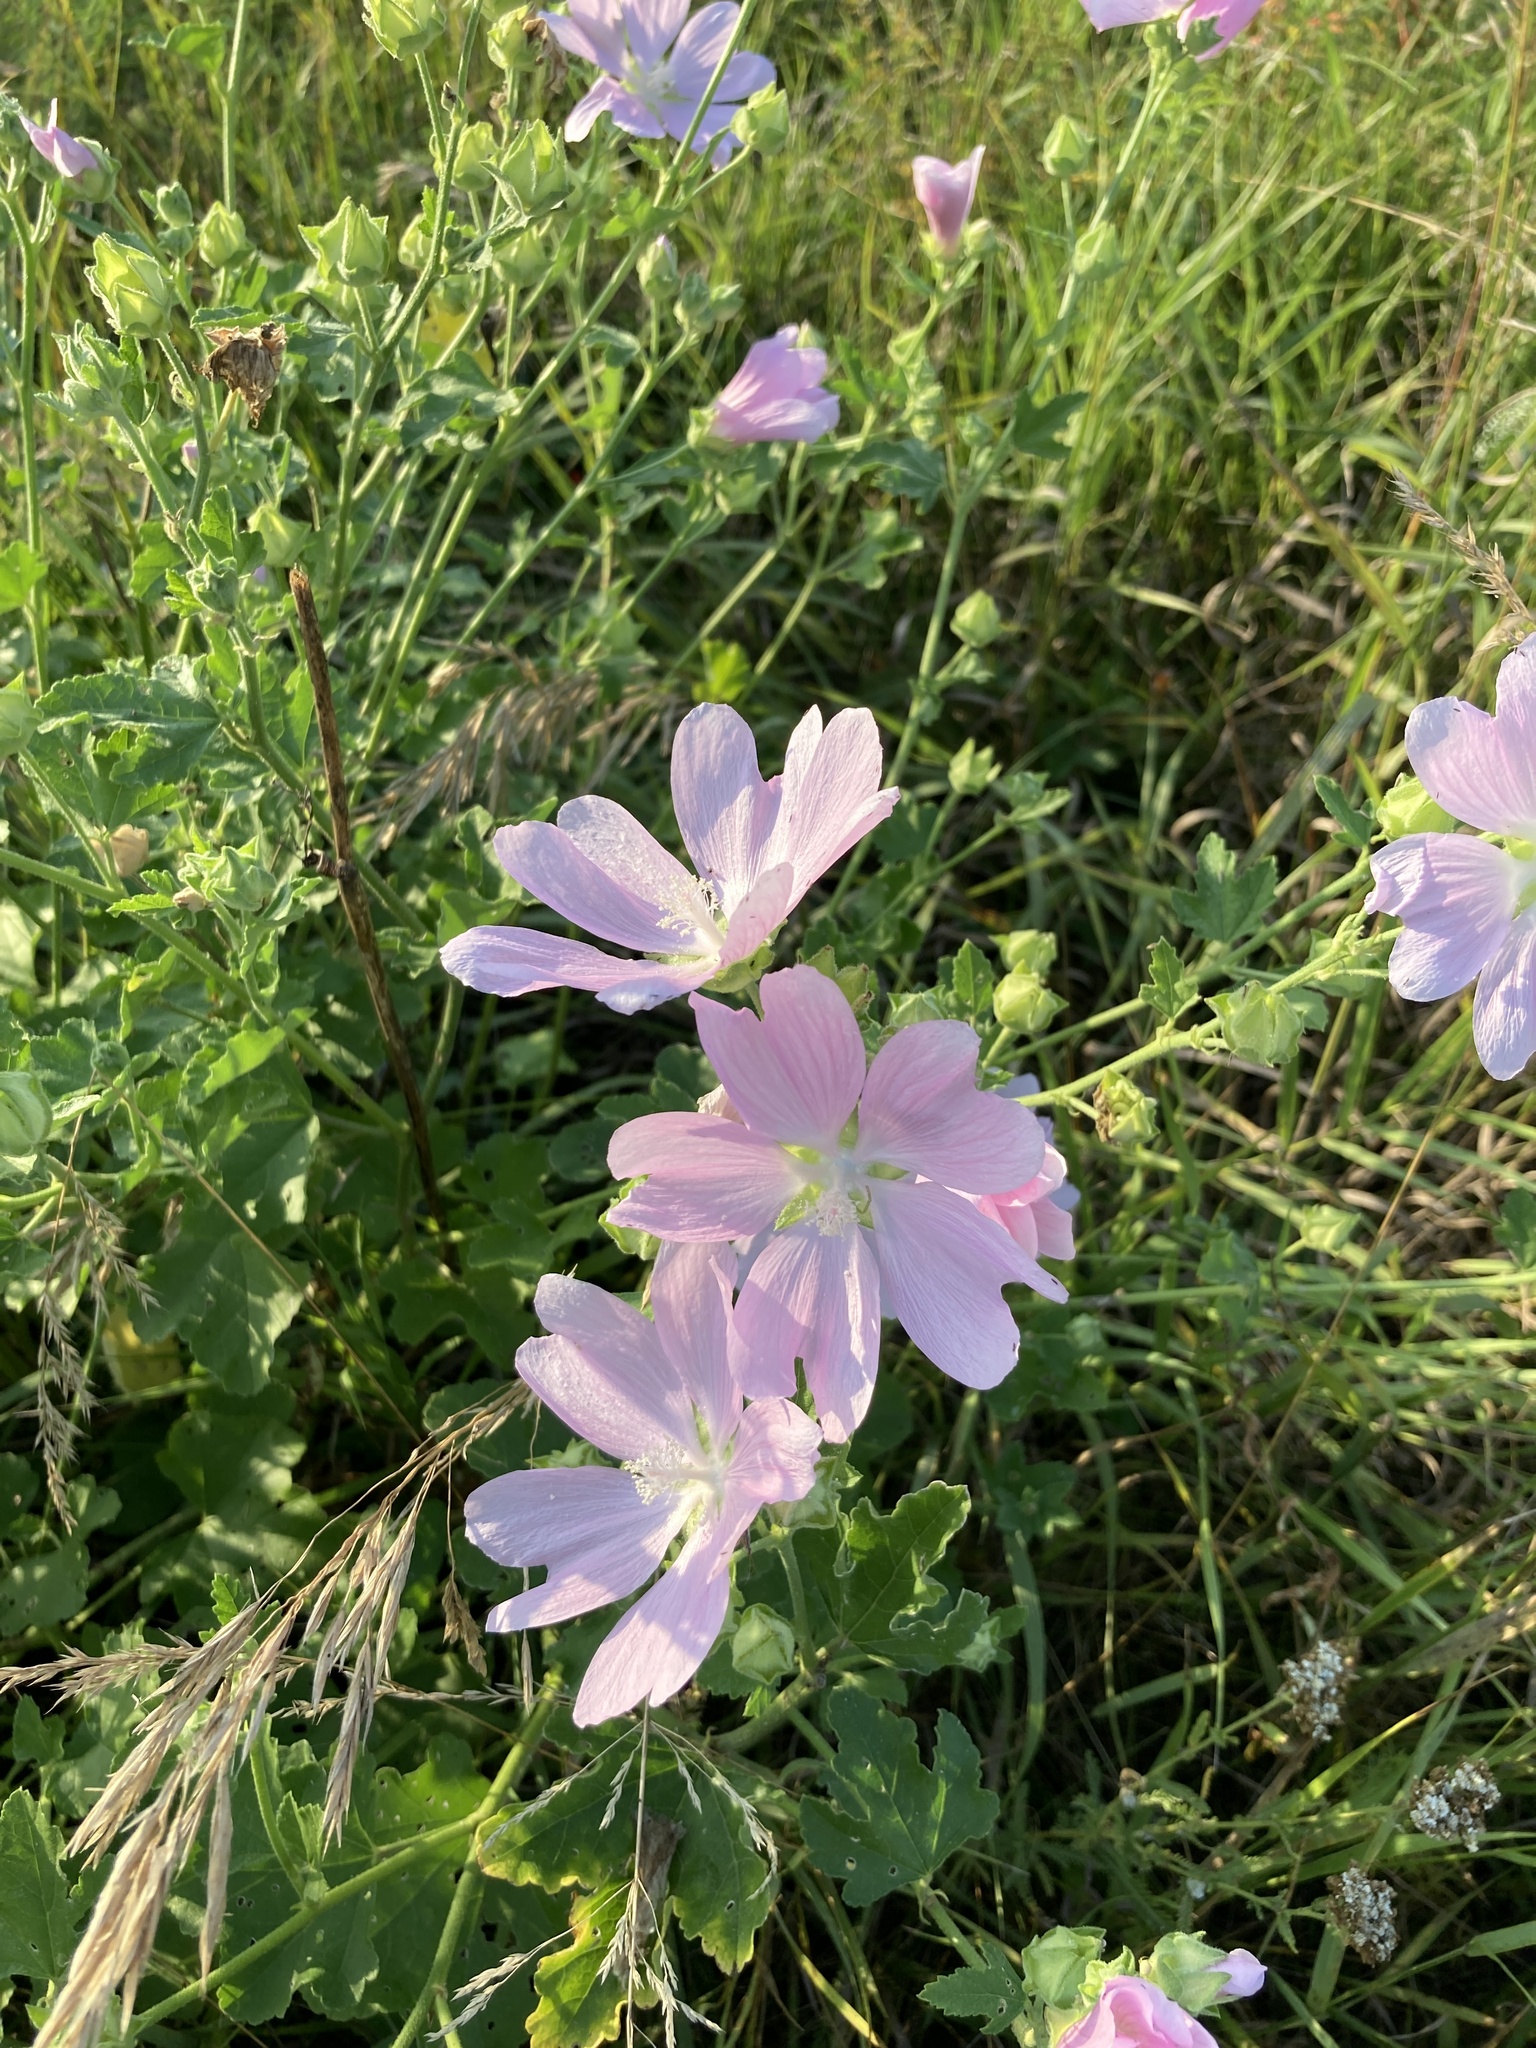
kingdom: Plantae
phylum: Tracheophyta
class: Magnoliopsida
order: Malvales
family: Malvaceae
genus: Malva
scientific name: Malva thuringiaca
